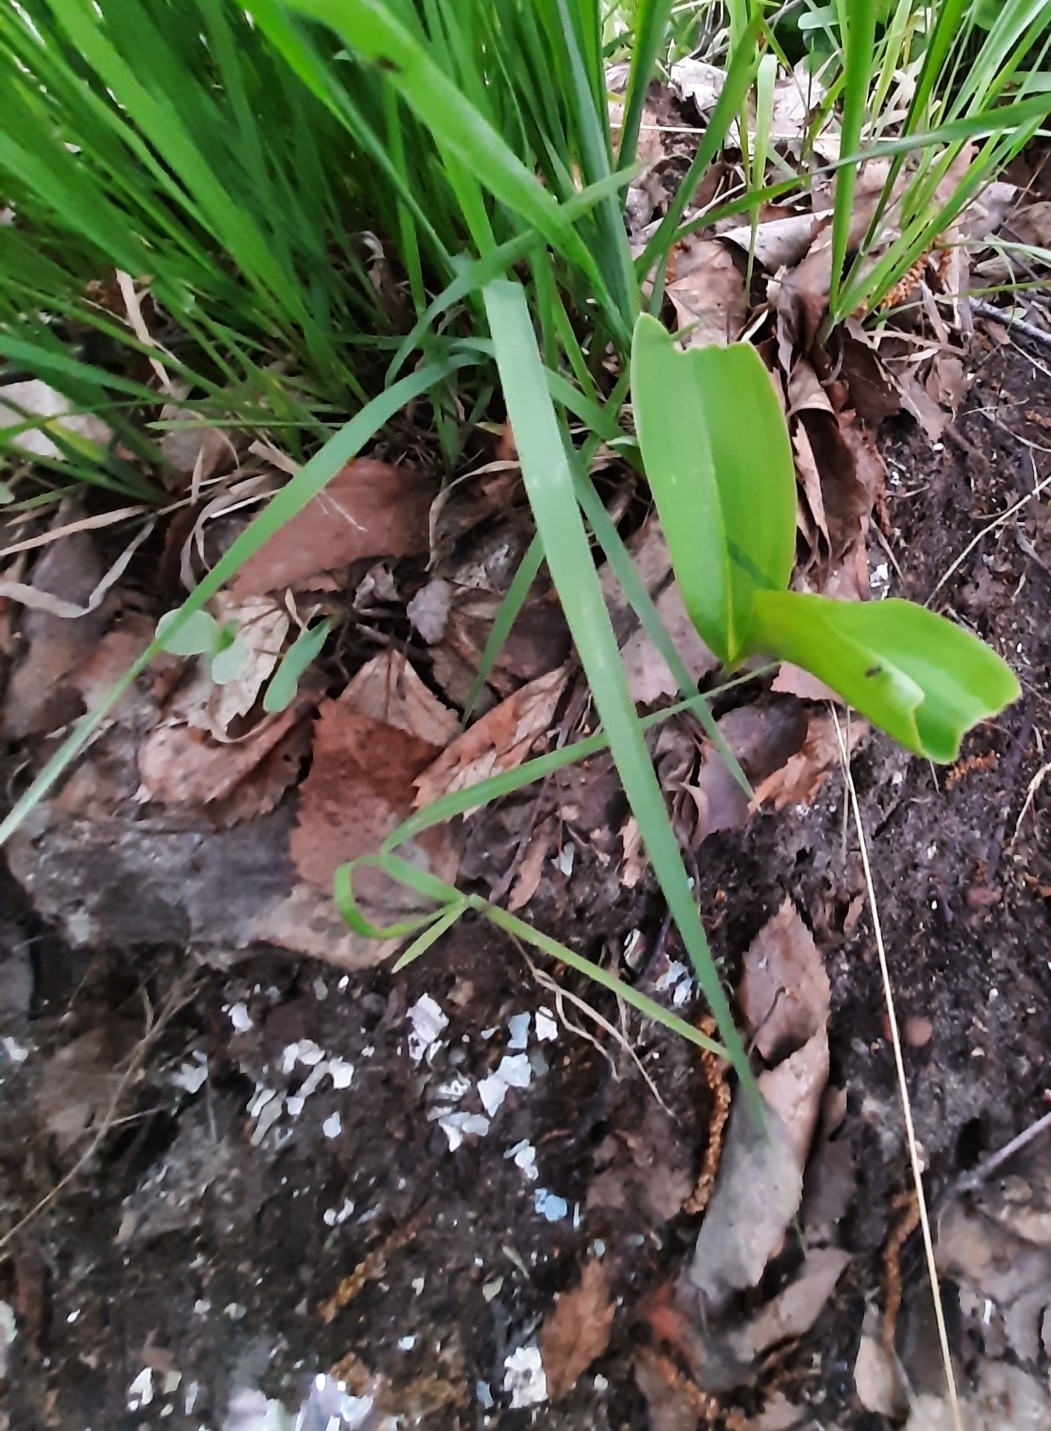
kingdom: Plantae
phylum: Tracheophyta
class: Liliopsida
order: Asparagales
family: Asparagaceae
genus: Convallaria
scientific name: Convallaria majalis
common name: Lily-of-the-valley
